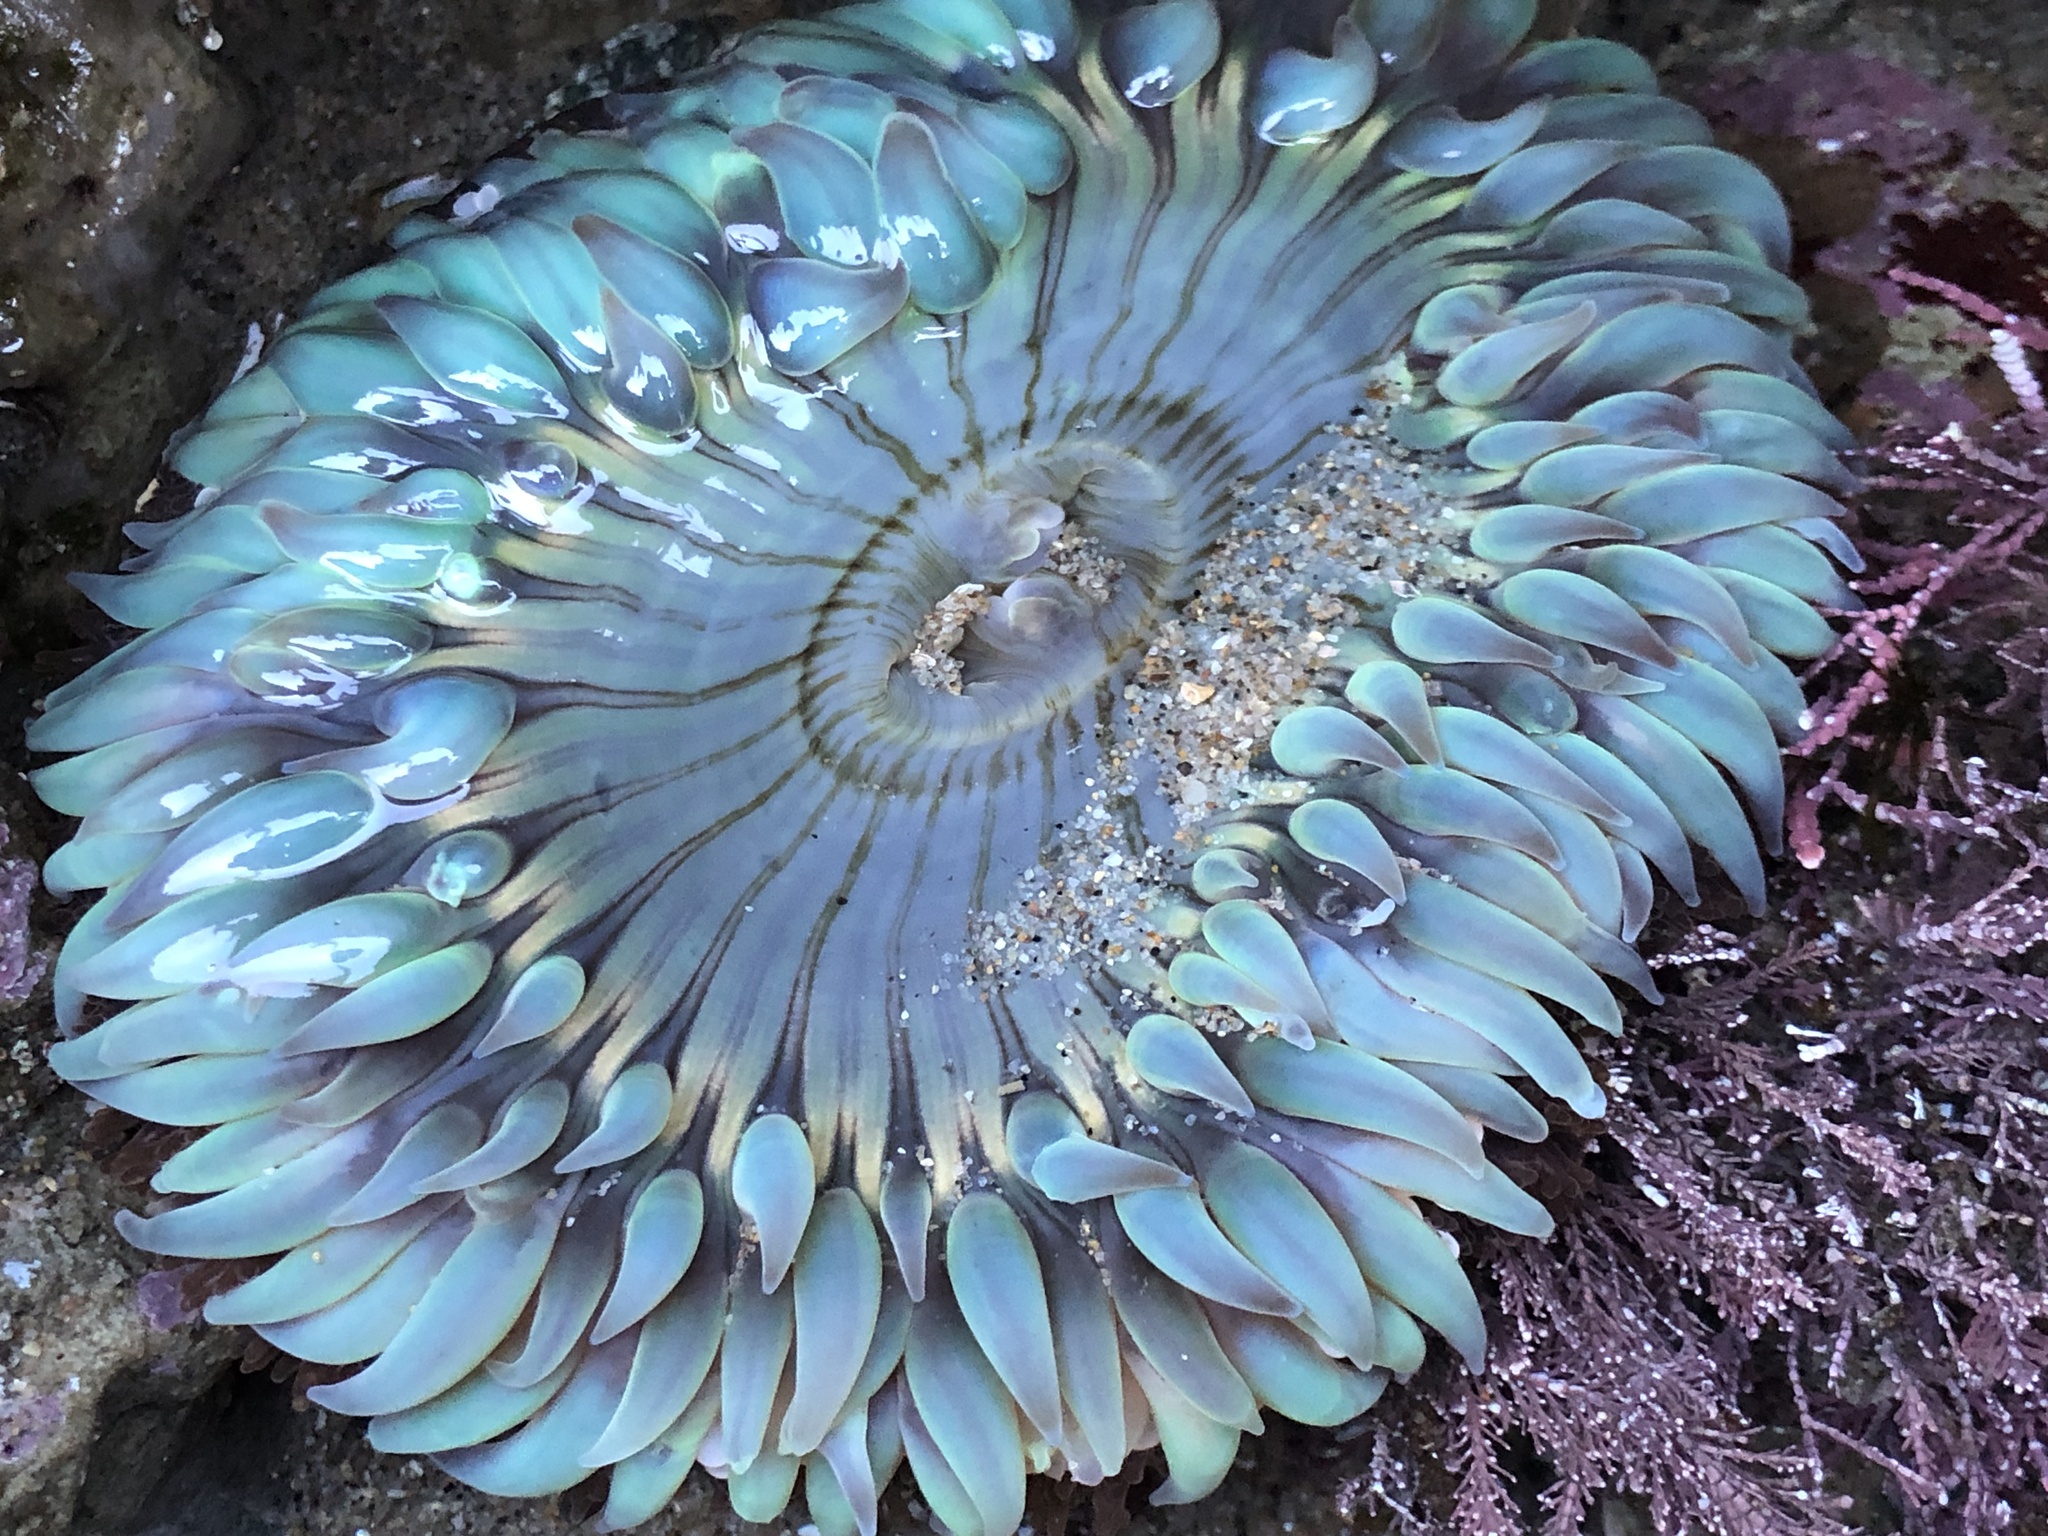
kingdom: Animalia
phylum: Cnidaria
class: Anthozoa
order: Actiniaria
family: Actiniidae
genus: Anthopleura
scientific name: Anthopleura sola
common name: Sun anemone
